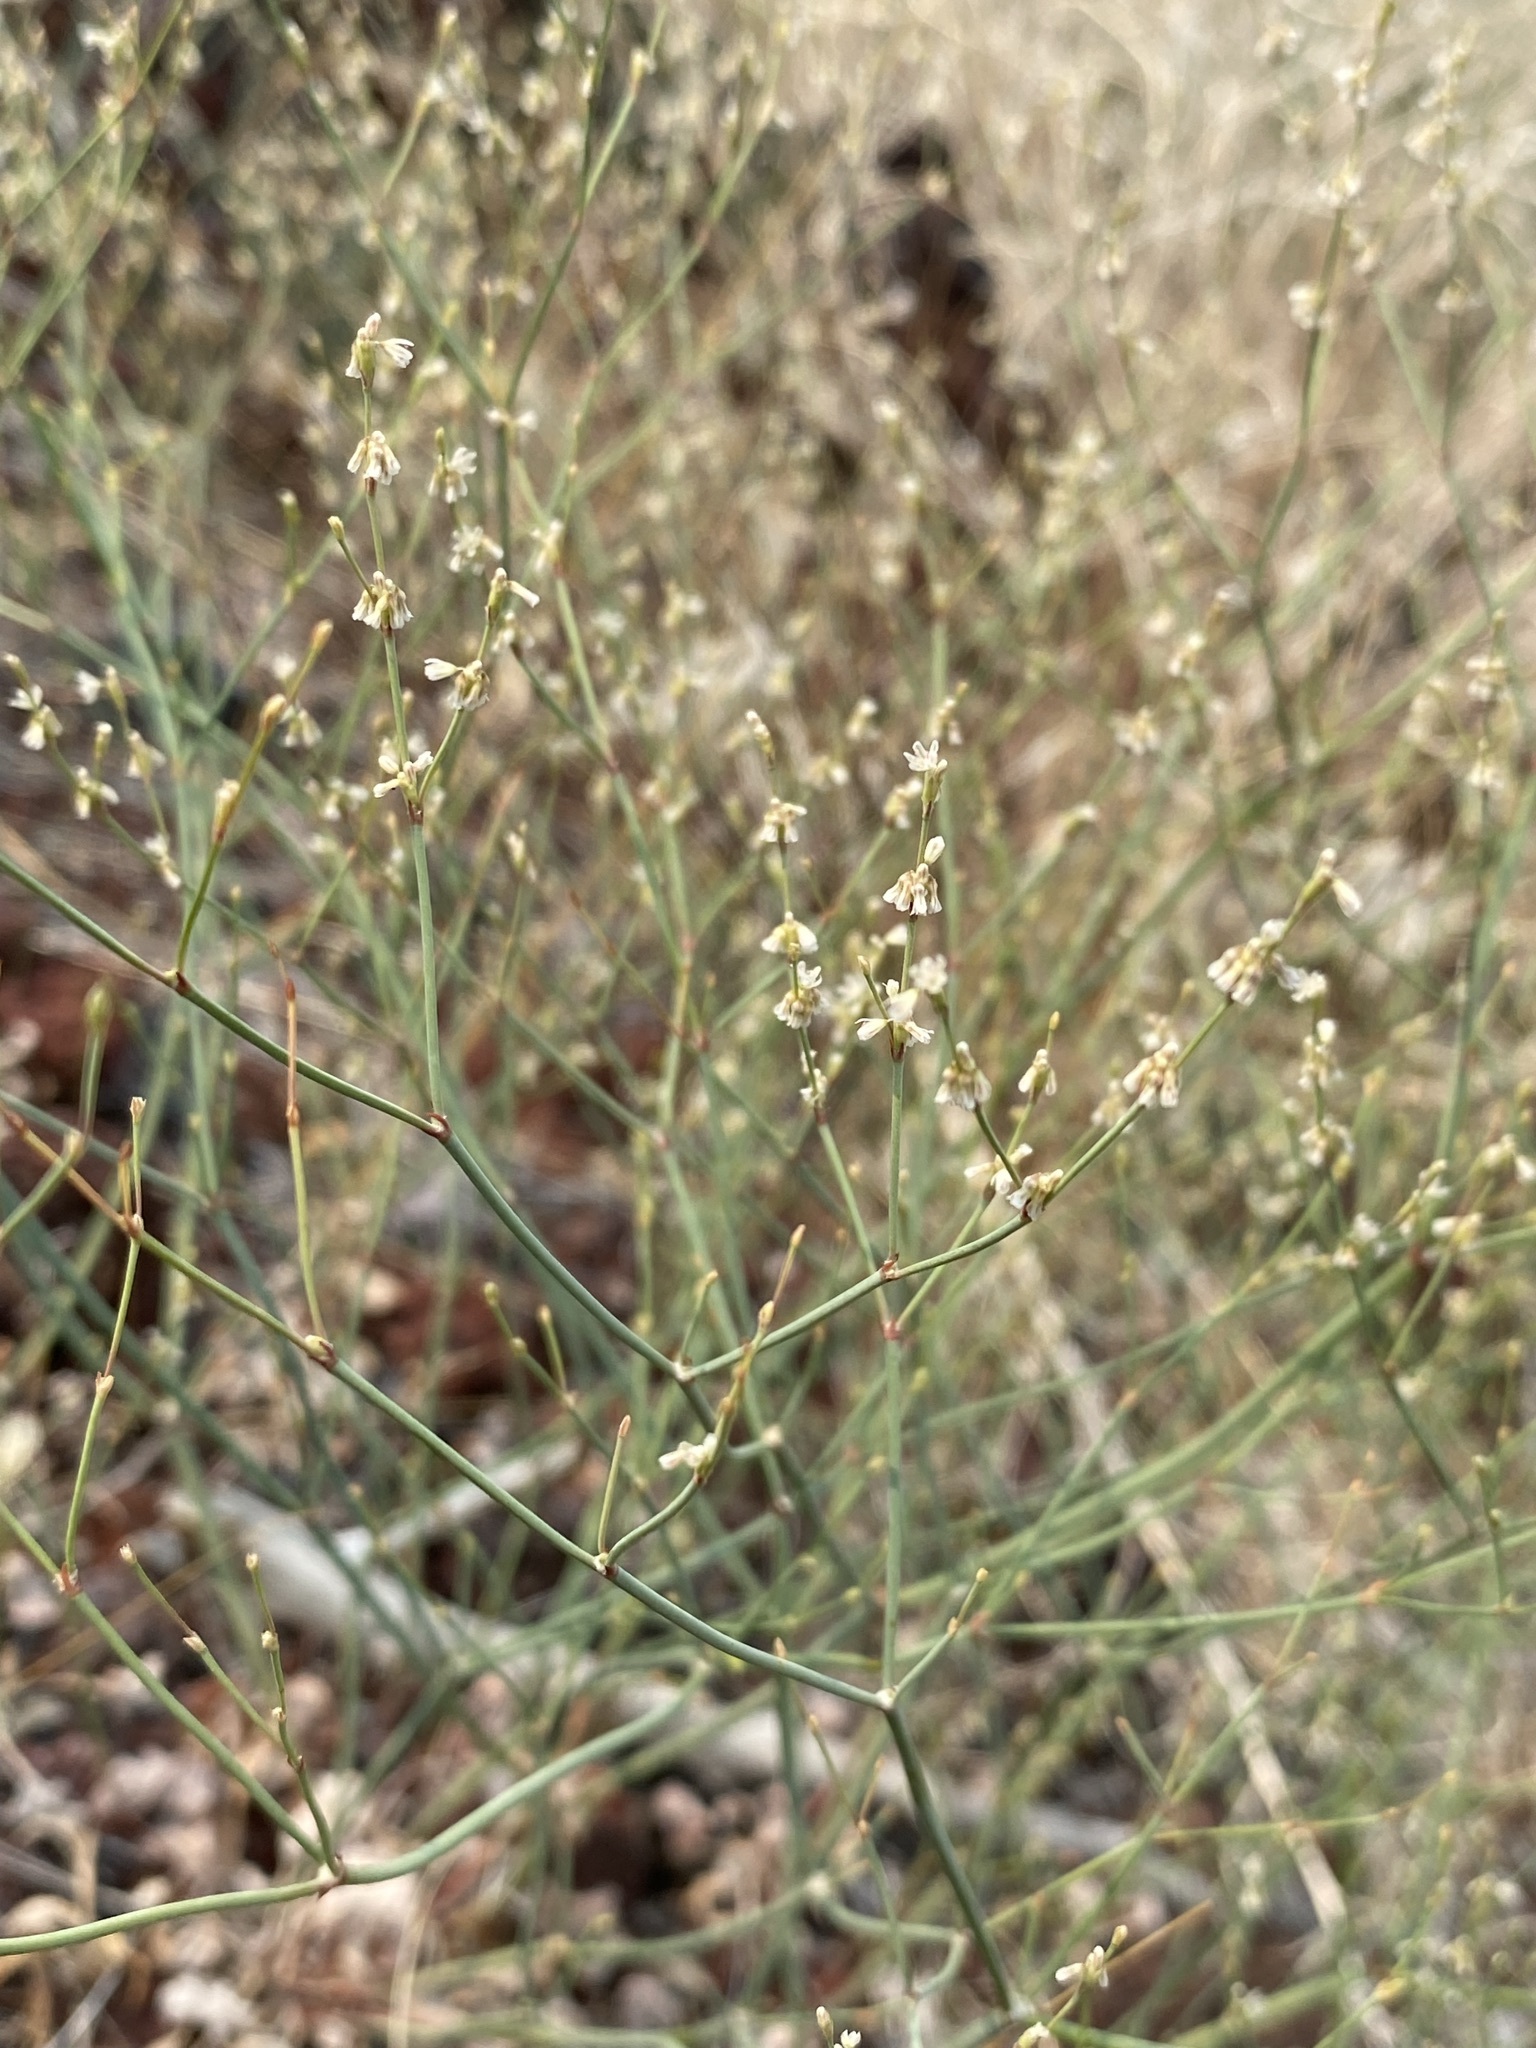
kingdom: Plantae
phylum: Tracheophyta
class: Magnoliopsida
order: Caryophyllales
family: Polygonaceae
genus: Eriogonum
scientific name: Eriogonum vimineum
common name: Wicker buckwheat
